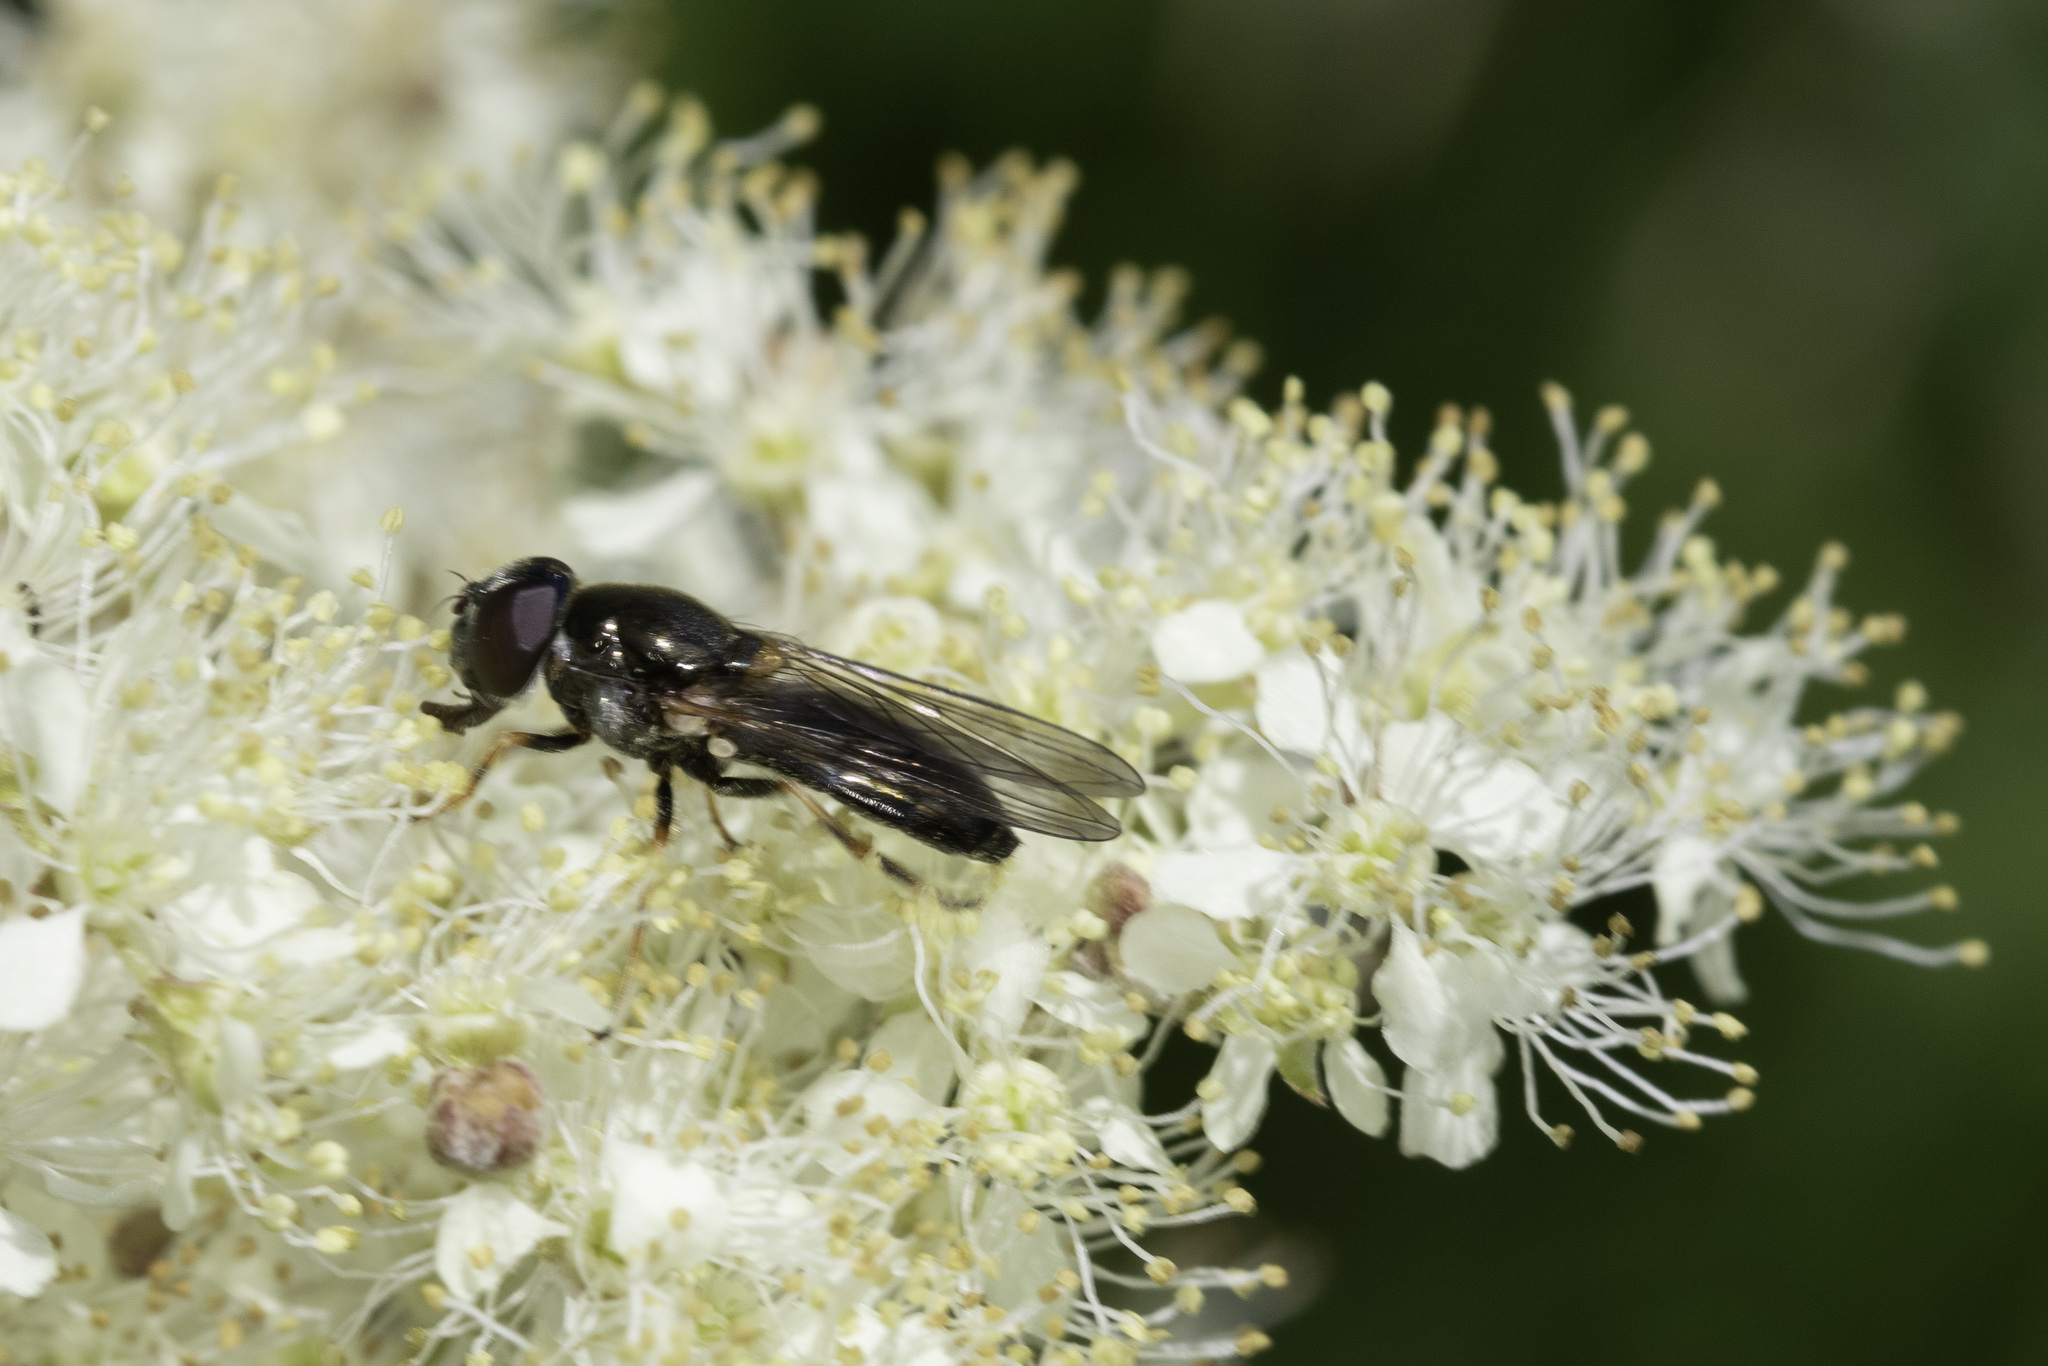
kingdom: Animalia
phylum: Arthropoda
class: Insecta
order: Diptera
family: Syrphidae
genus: Cheilosia
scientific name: Cheilosia scutellata
